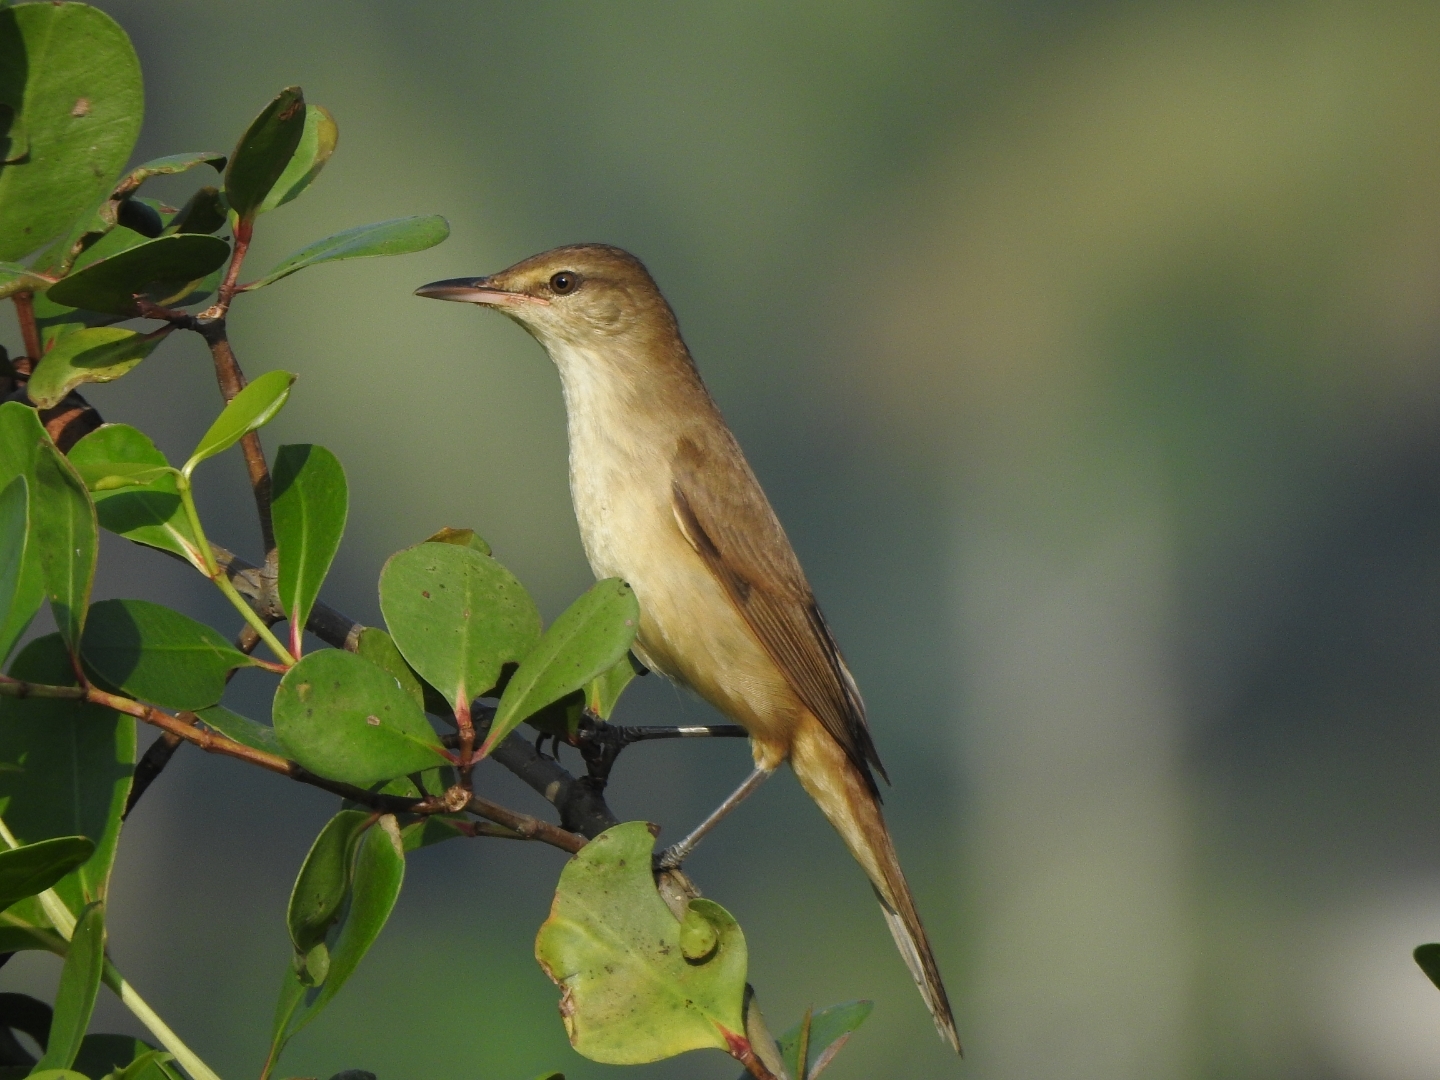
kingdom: Animalia
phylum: Chordata
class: Aves
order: Passeriformes
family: Acrocephalidae
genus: Acrocephalus
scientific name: Acrocephalus stentoreus
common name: Clamorous reed warbler
